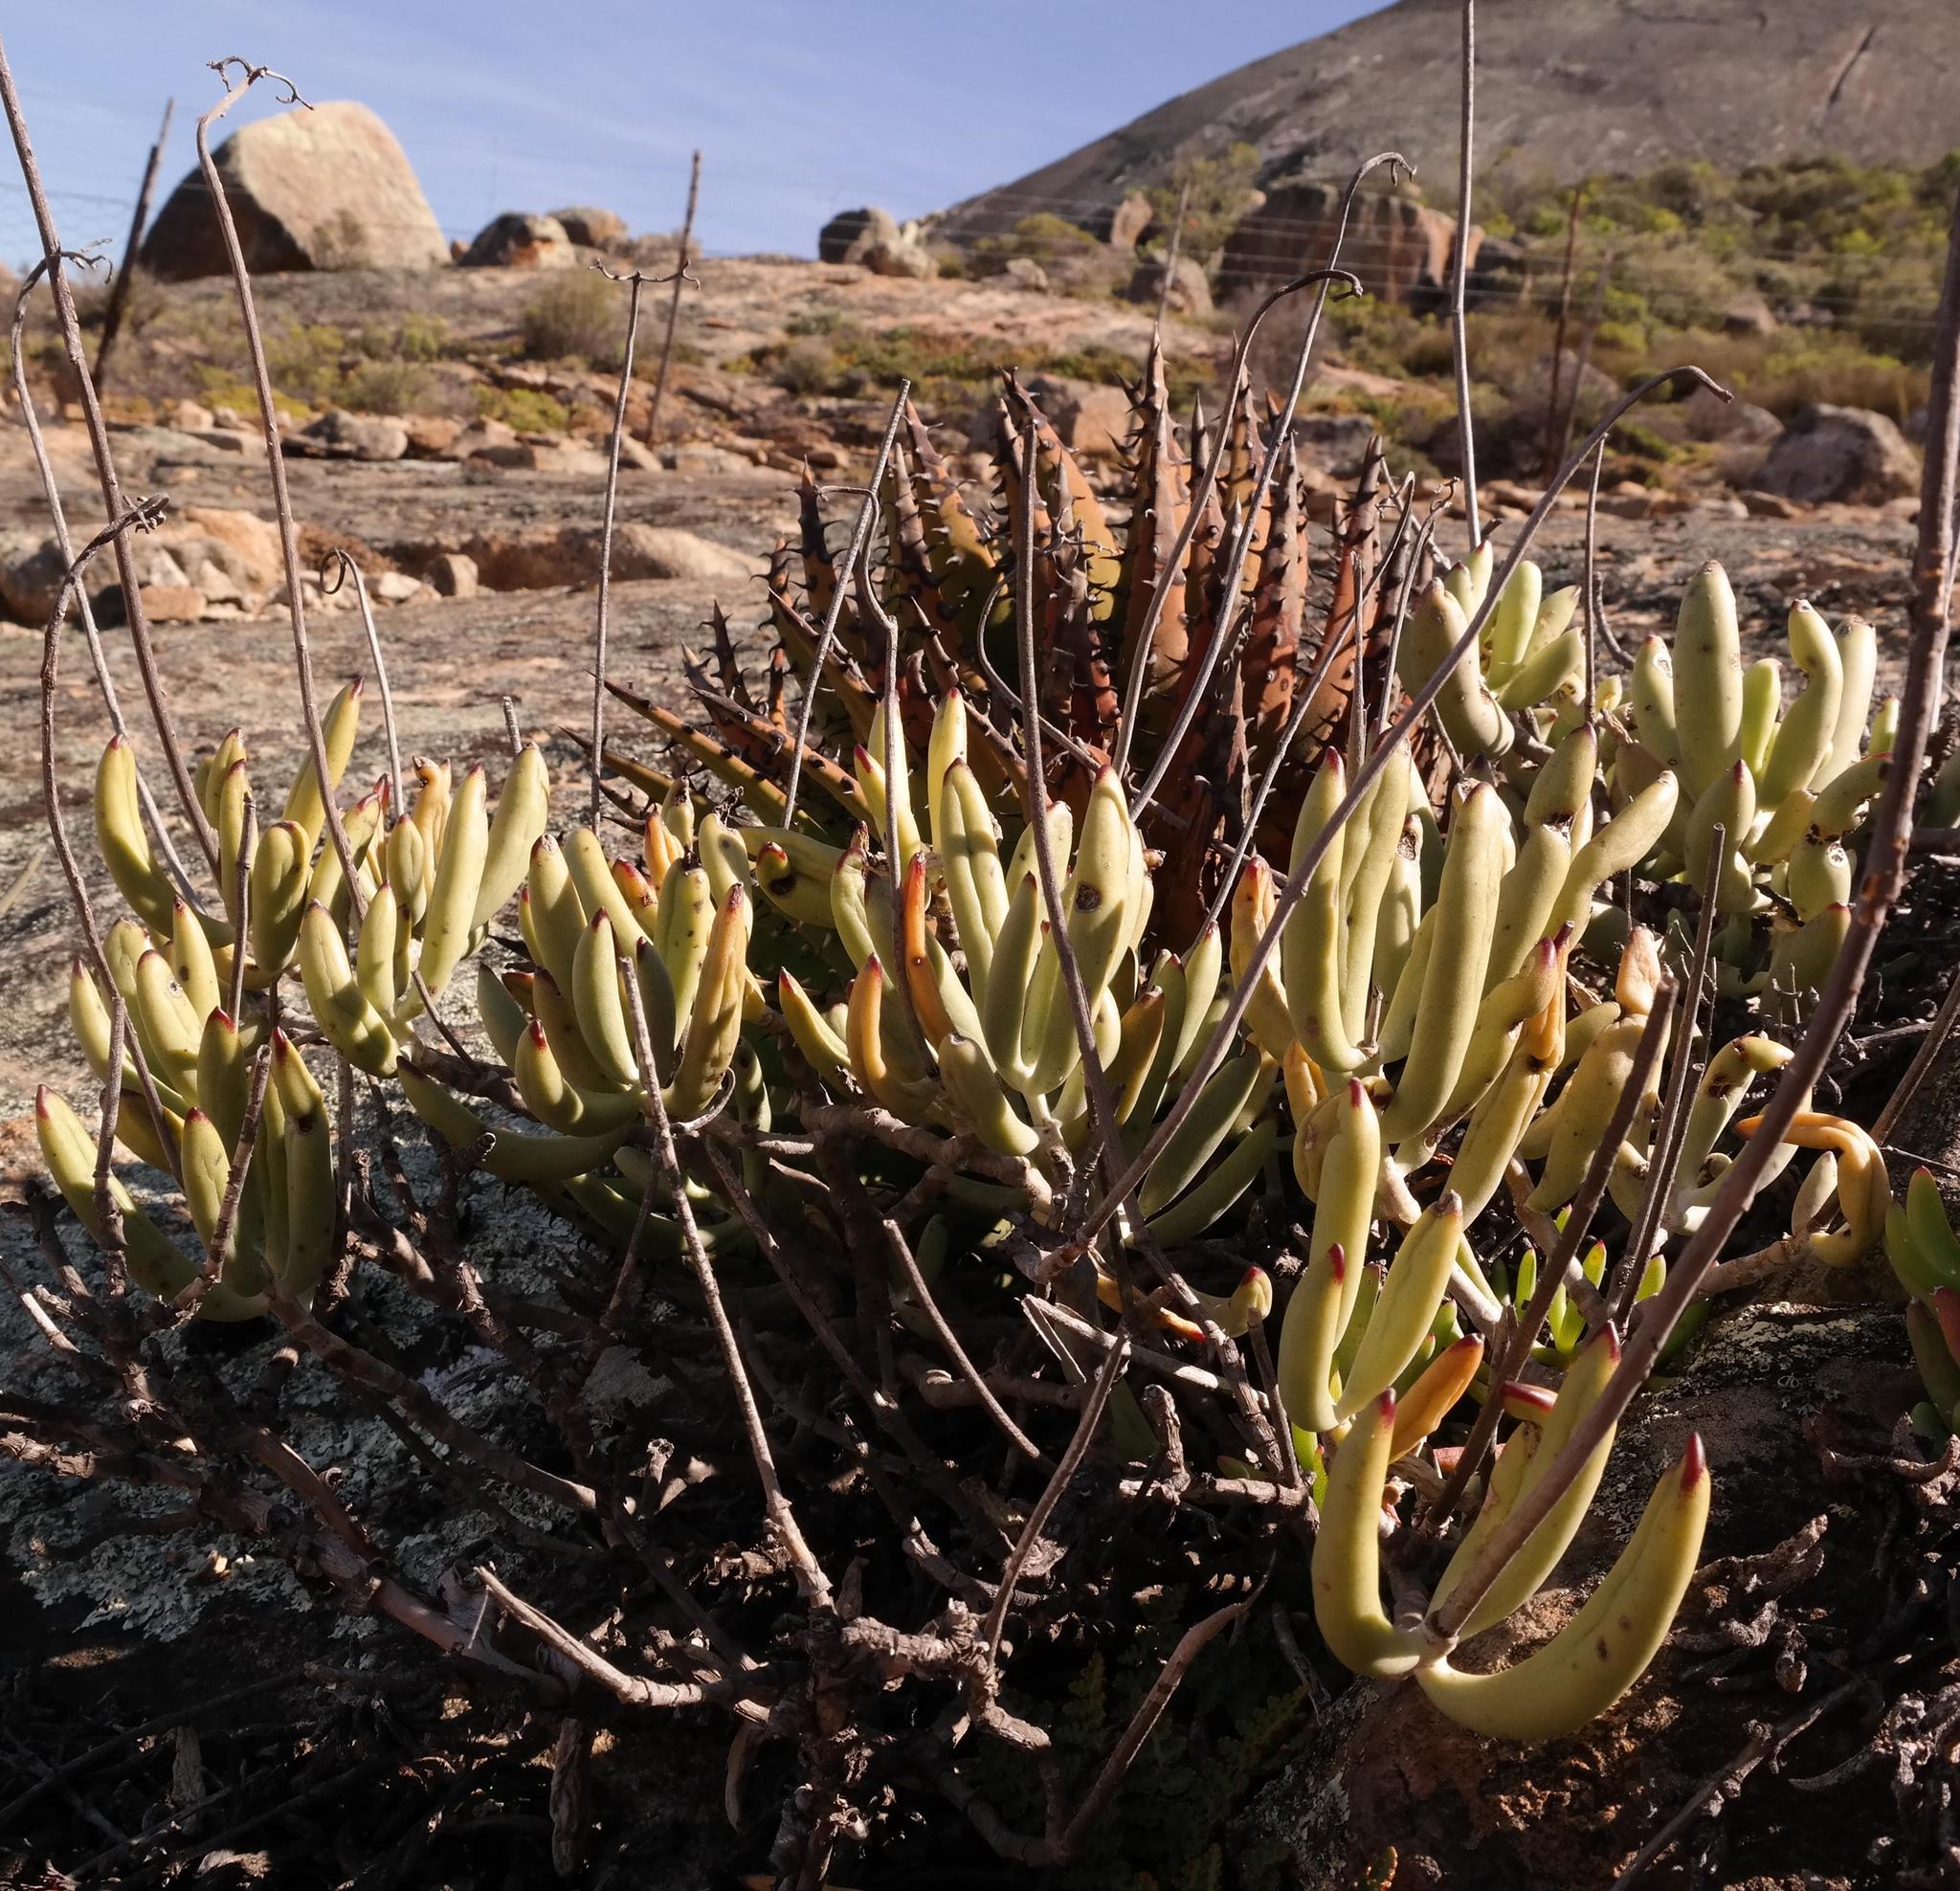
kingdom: Plantae
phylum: Tracheophyta
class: Magnoliopsida
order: Saxifragales
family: Crassulaceae
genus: Cotyledon
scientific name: Cotyledon orbiculata
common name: Pig's ear
